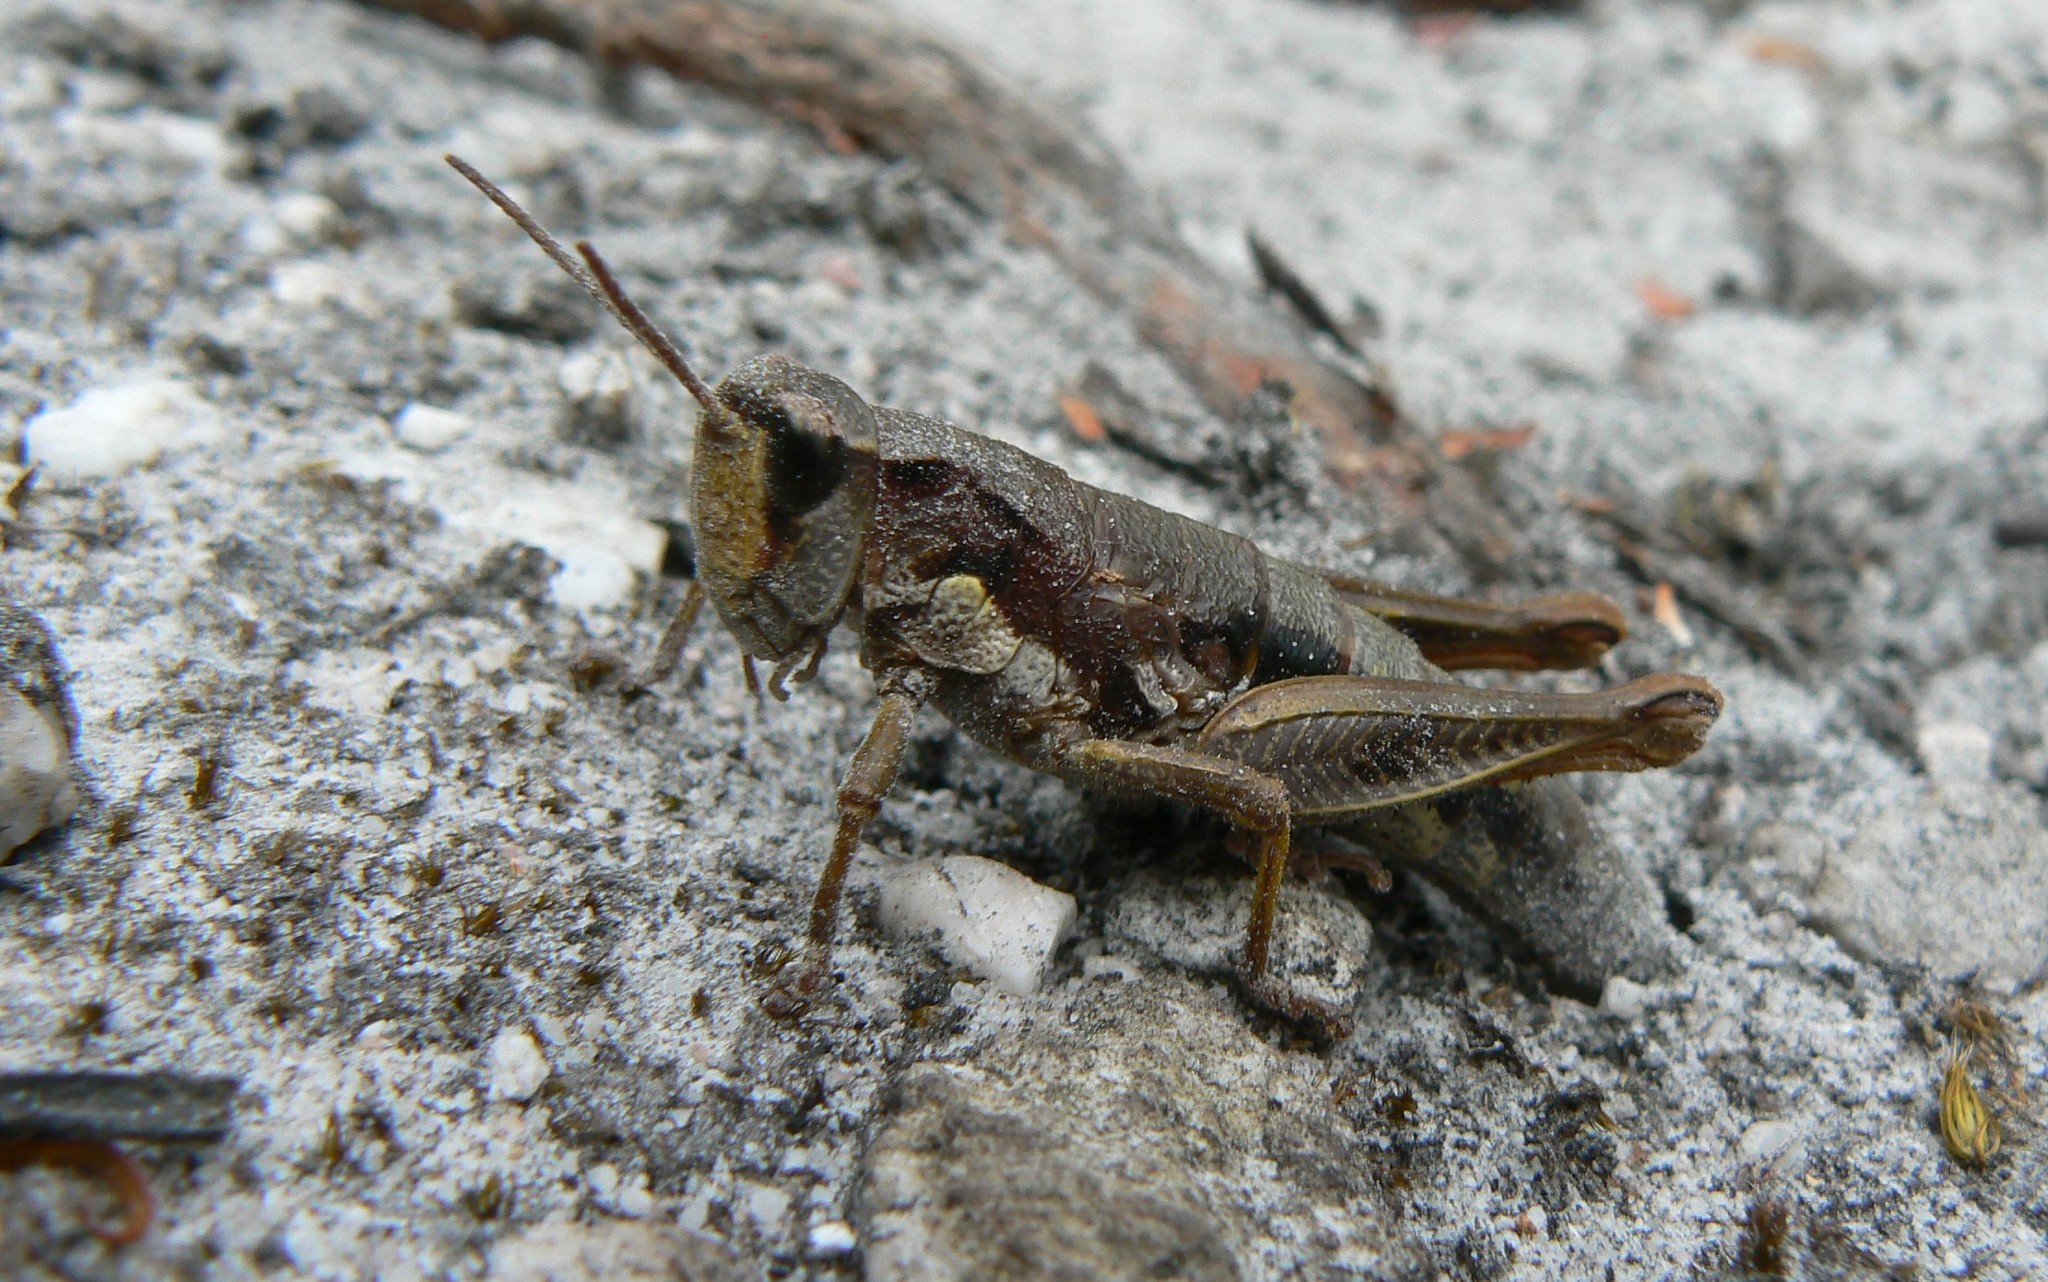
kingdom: Animalia
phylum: Arthropoda
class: Insecta
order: Orthoptera
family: Acrididae
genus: Tasmaniacris
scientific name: Tasmaniacris tasmaniensis
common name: Tasmanian grasshopper
